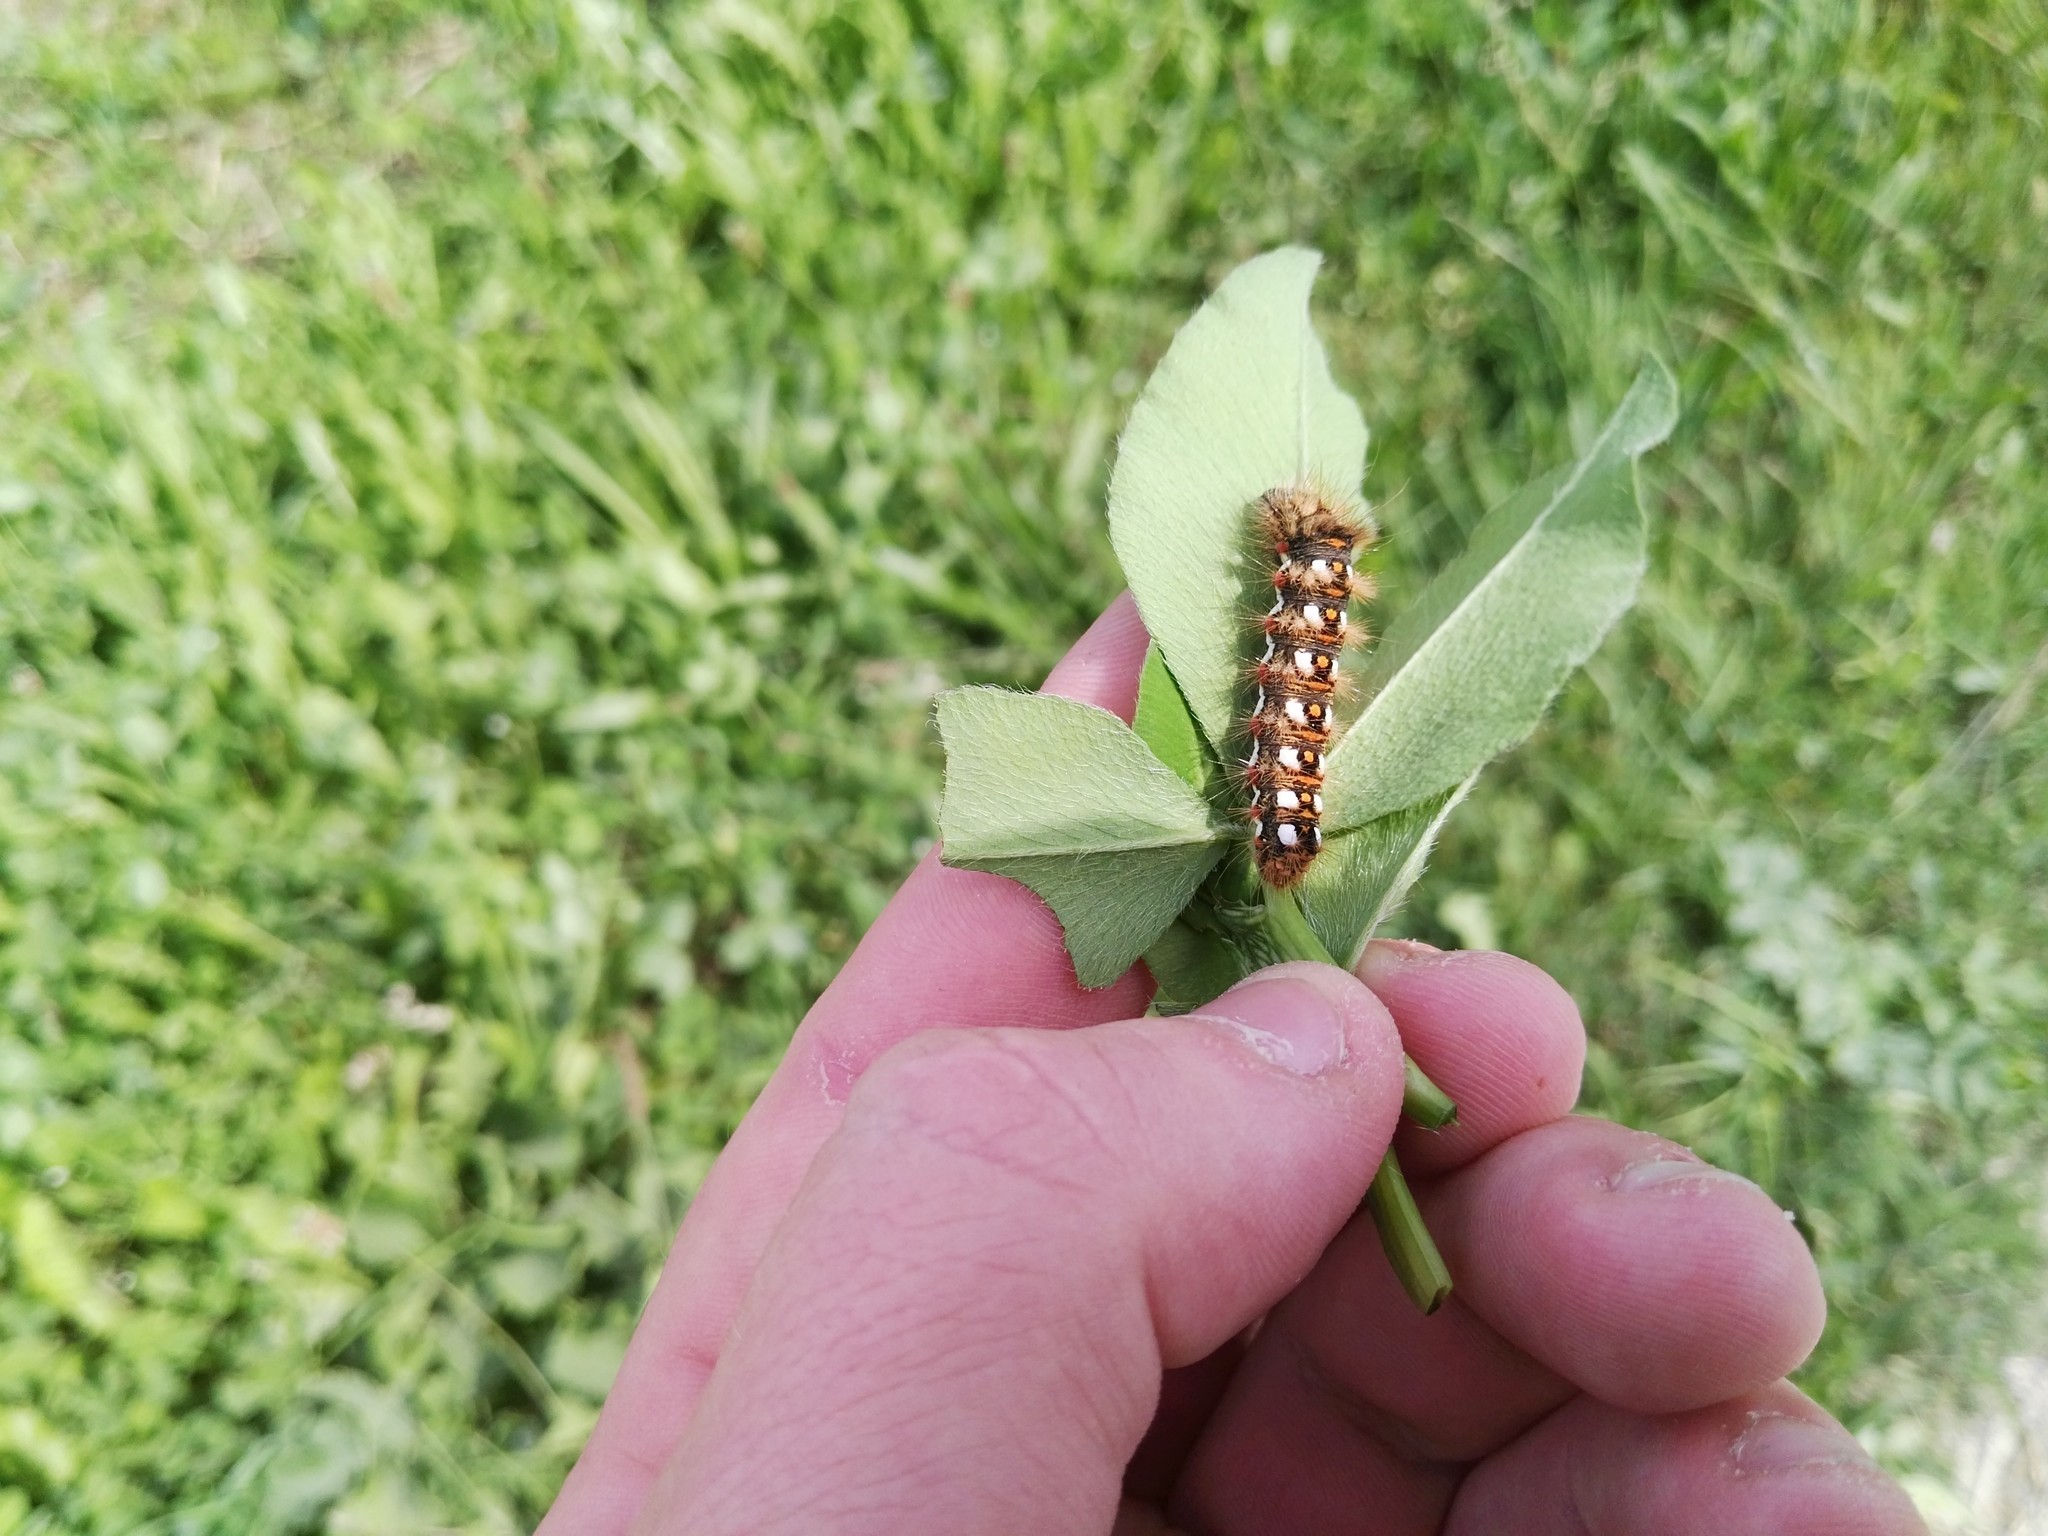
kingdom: Animalia
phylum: Arthropoda
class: Insecta
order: Lepidoptera
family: Noctuidae
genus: Acronicta
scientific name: Acronicta rumicis
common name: Knot grass
